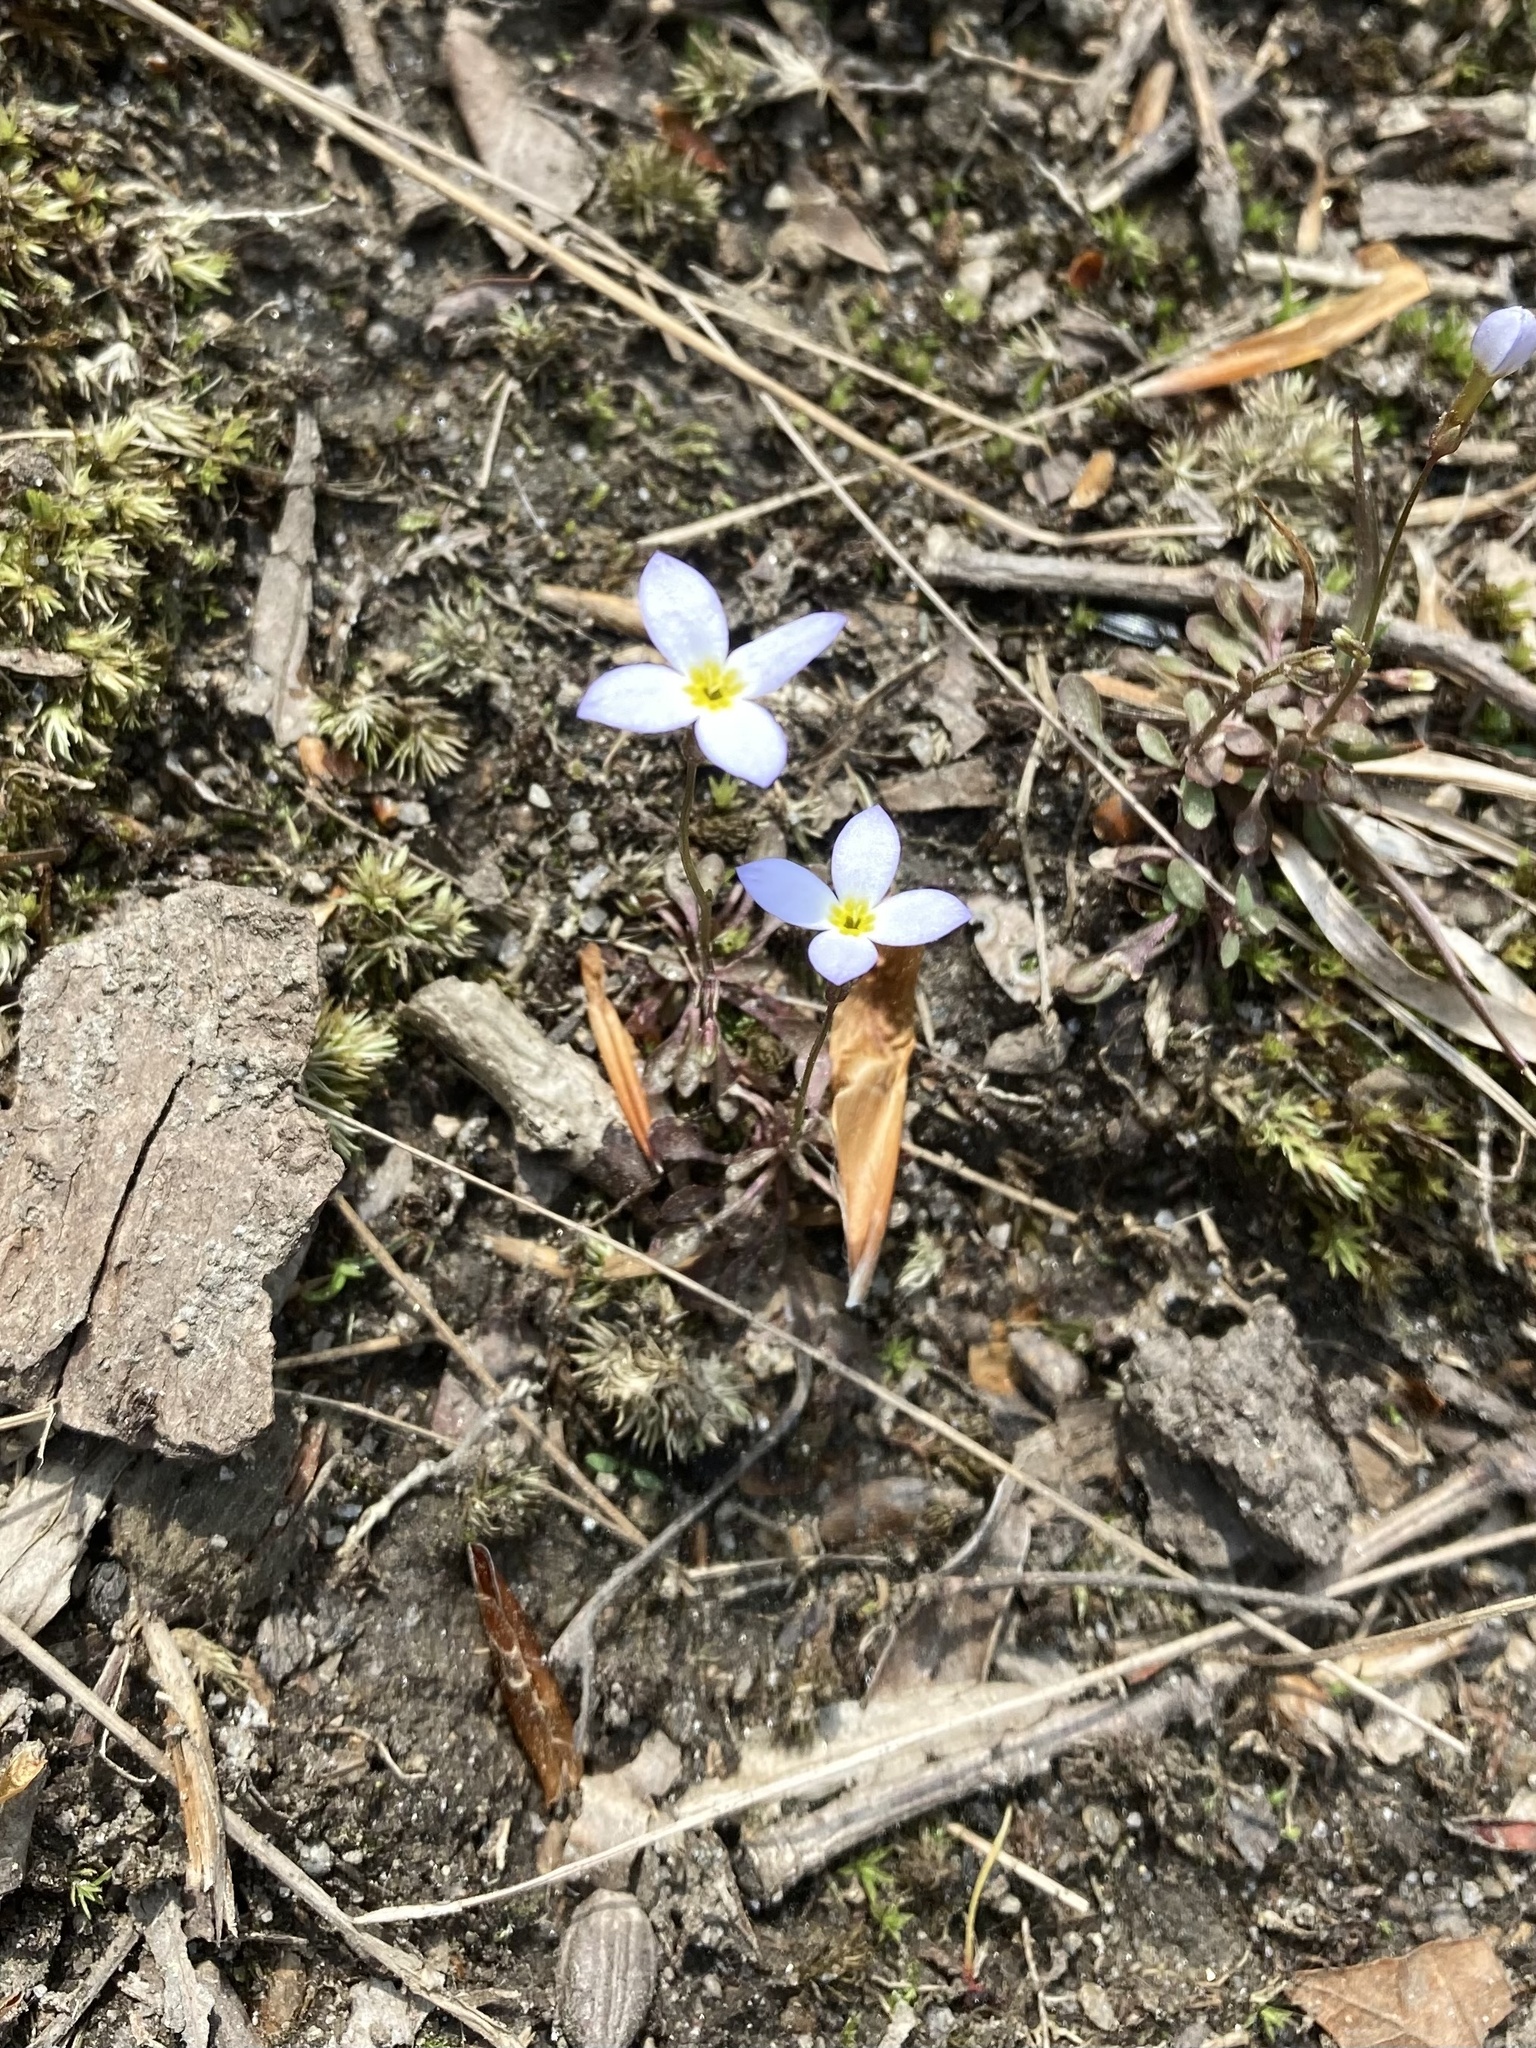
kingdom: Plantae
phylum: Tracheophyta
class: Magnoliopsida
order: Gentianales
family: Rubiaceae
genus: Houstonia
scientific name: Houstonia caerulea
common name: Bluets
